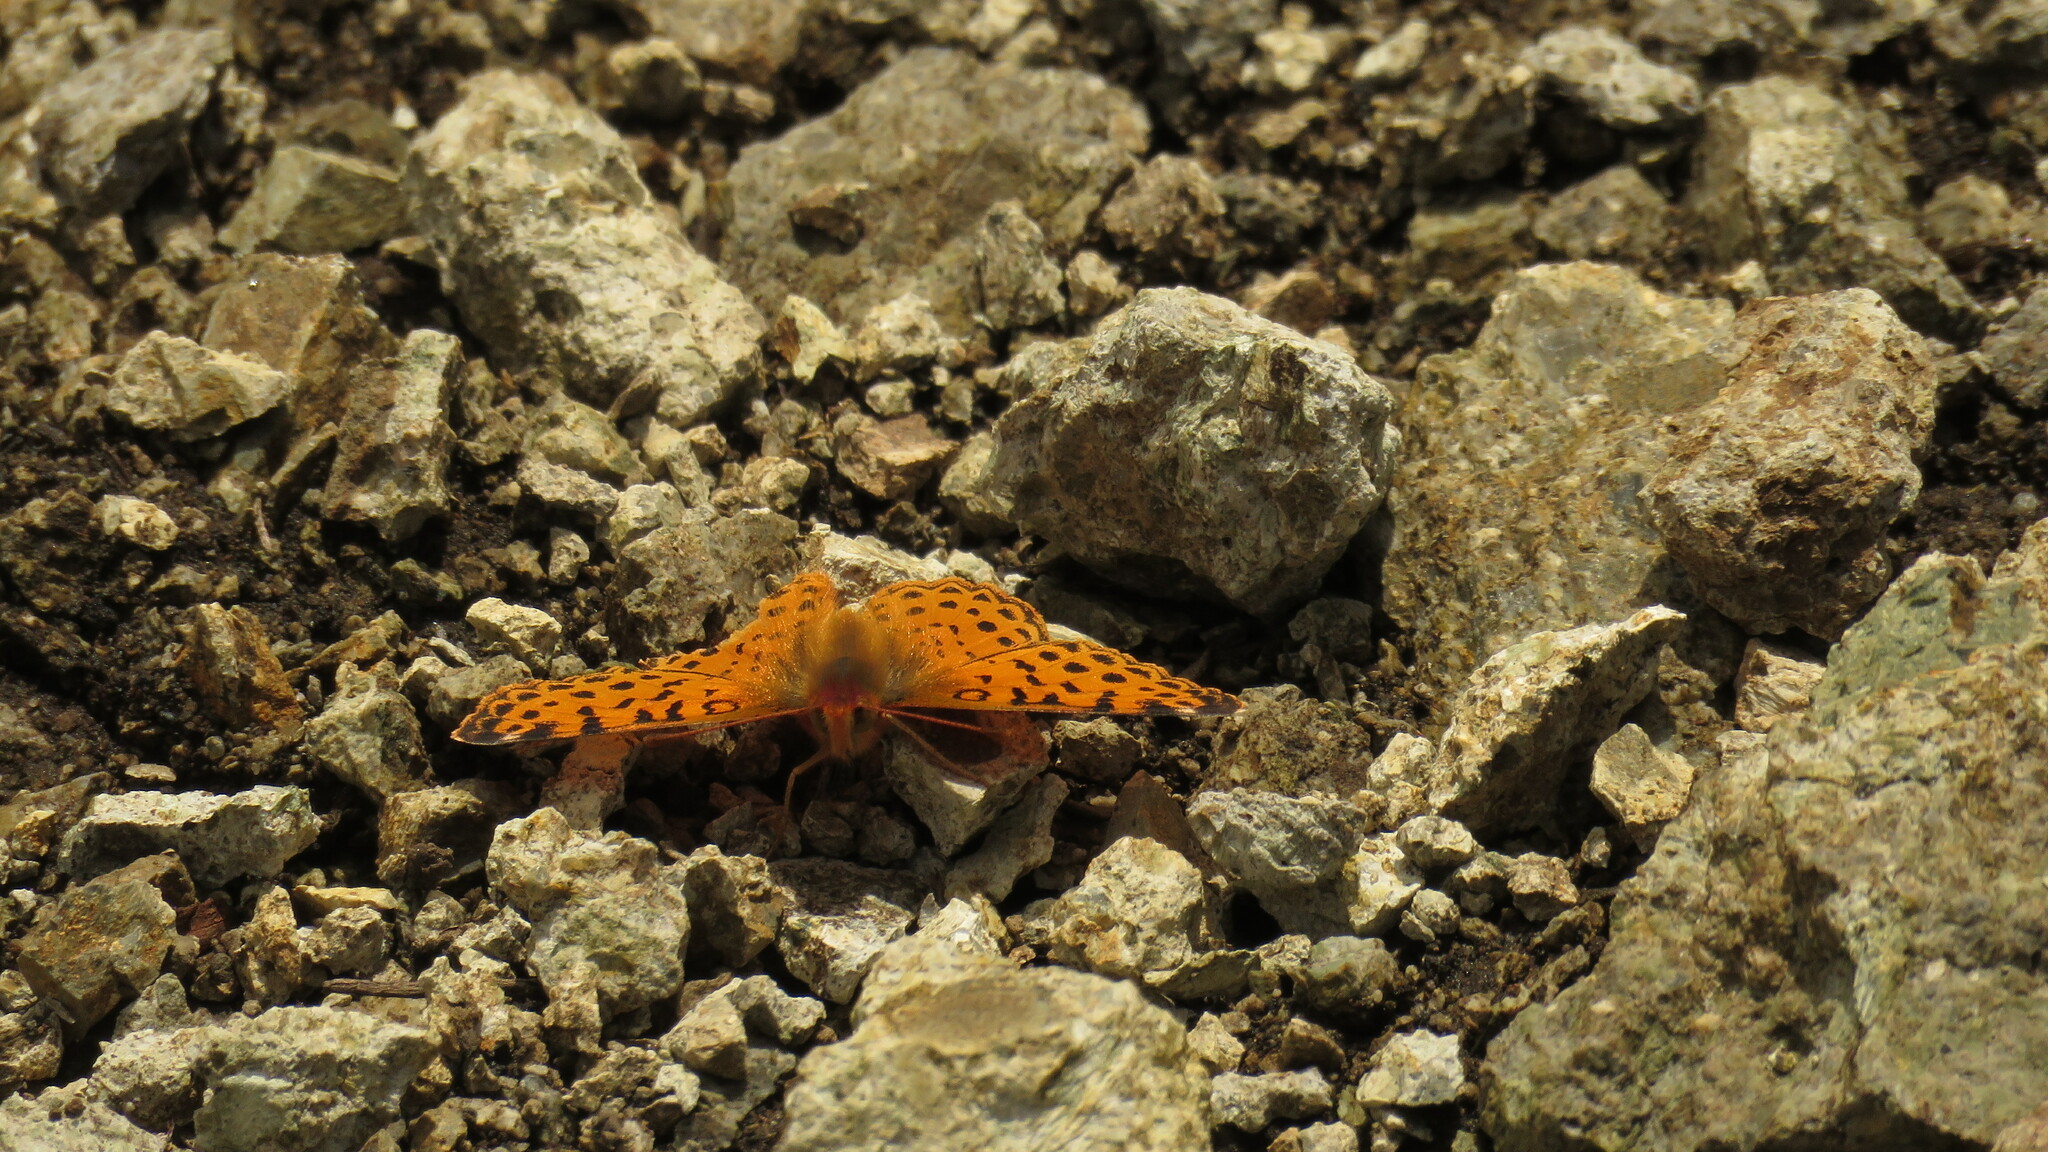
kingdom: Animalia
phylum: Arthropoda
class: Insecta
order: Lepidoptera
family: Nymphalidae
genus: Issoria
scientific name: Issoria Yramea cytheris
